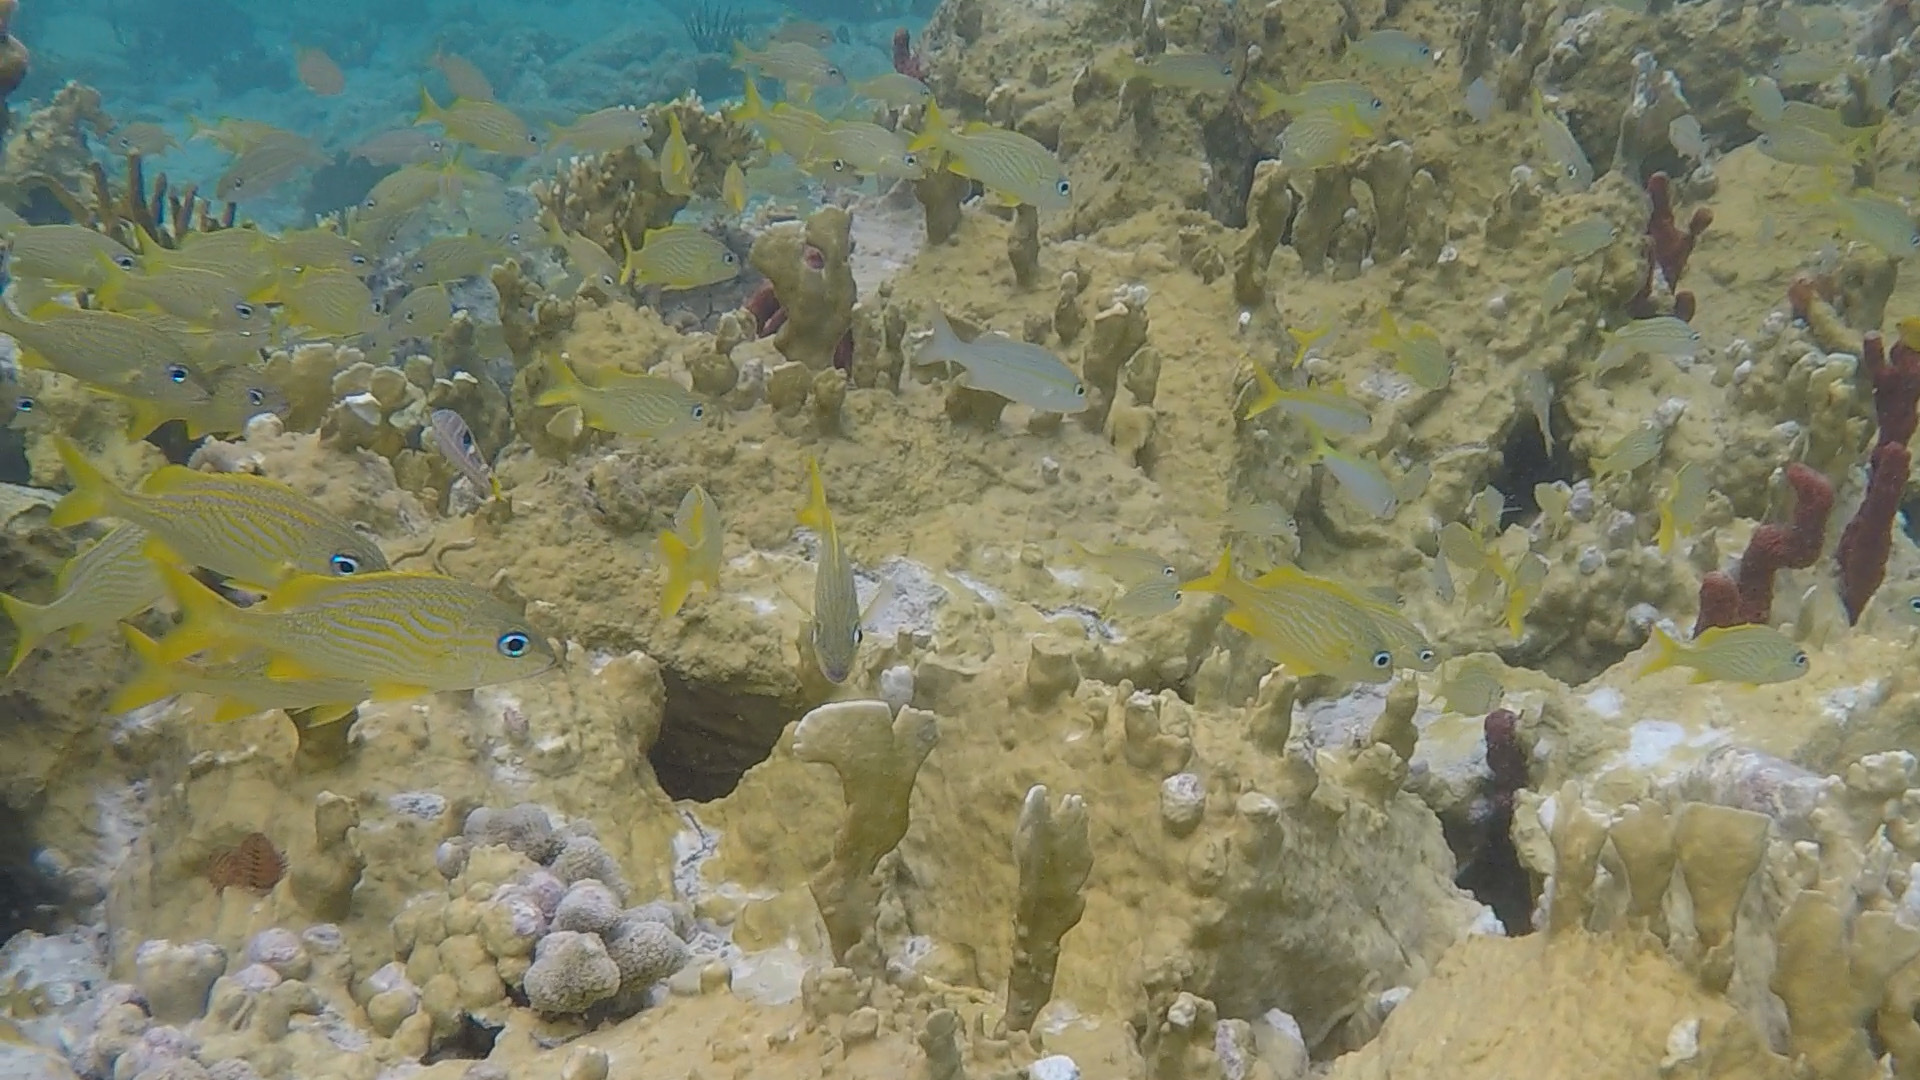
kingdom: Animalia
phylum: Chordata
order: Perciformes
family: Haemulidae
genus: Haemulon
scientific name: Haemulon flavolineatum
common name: French grunt
